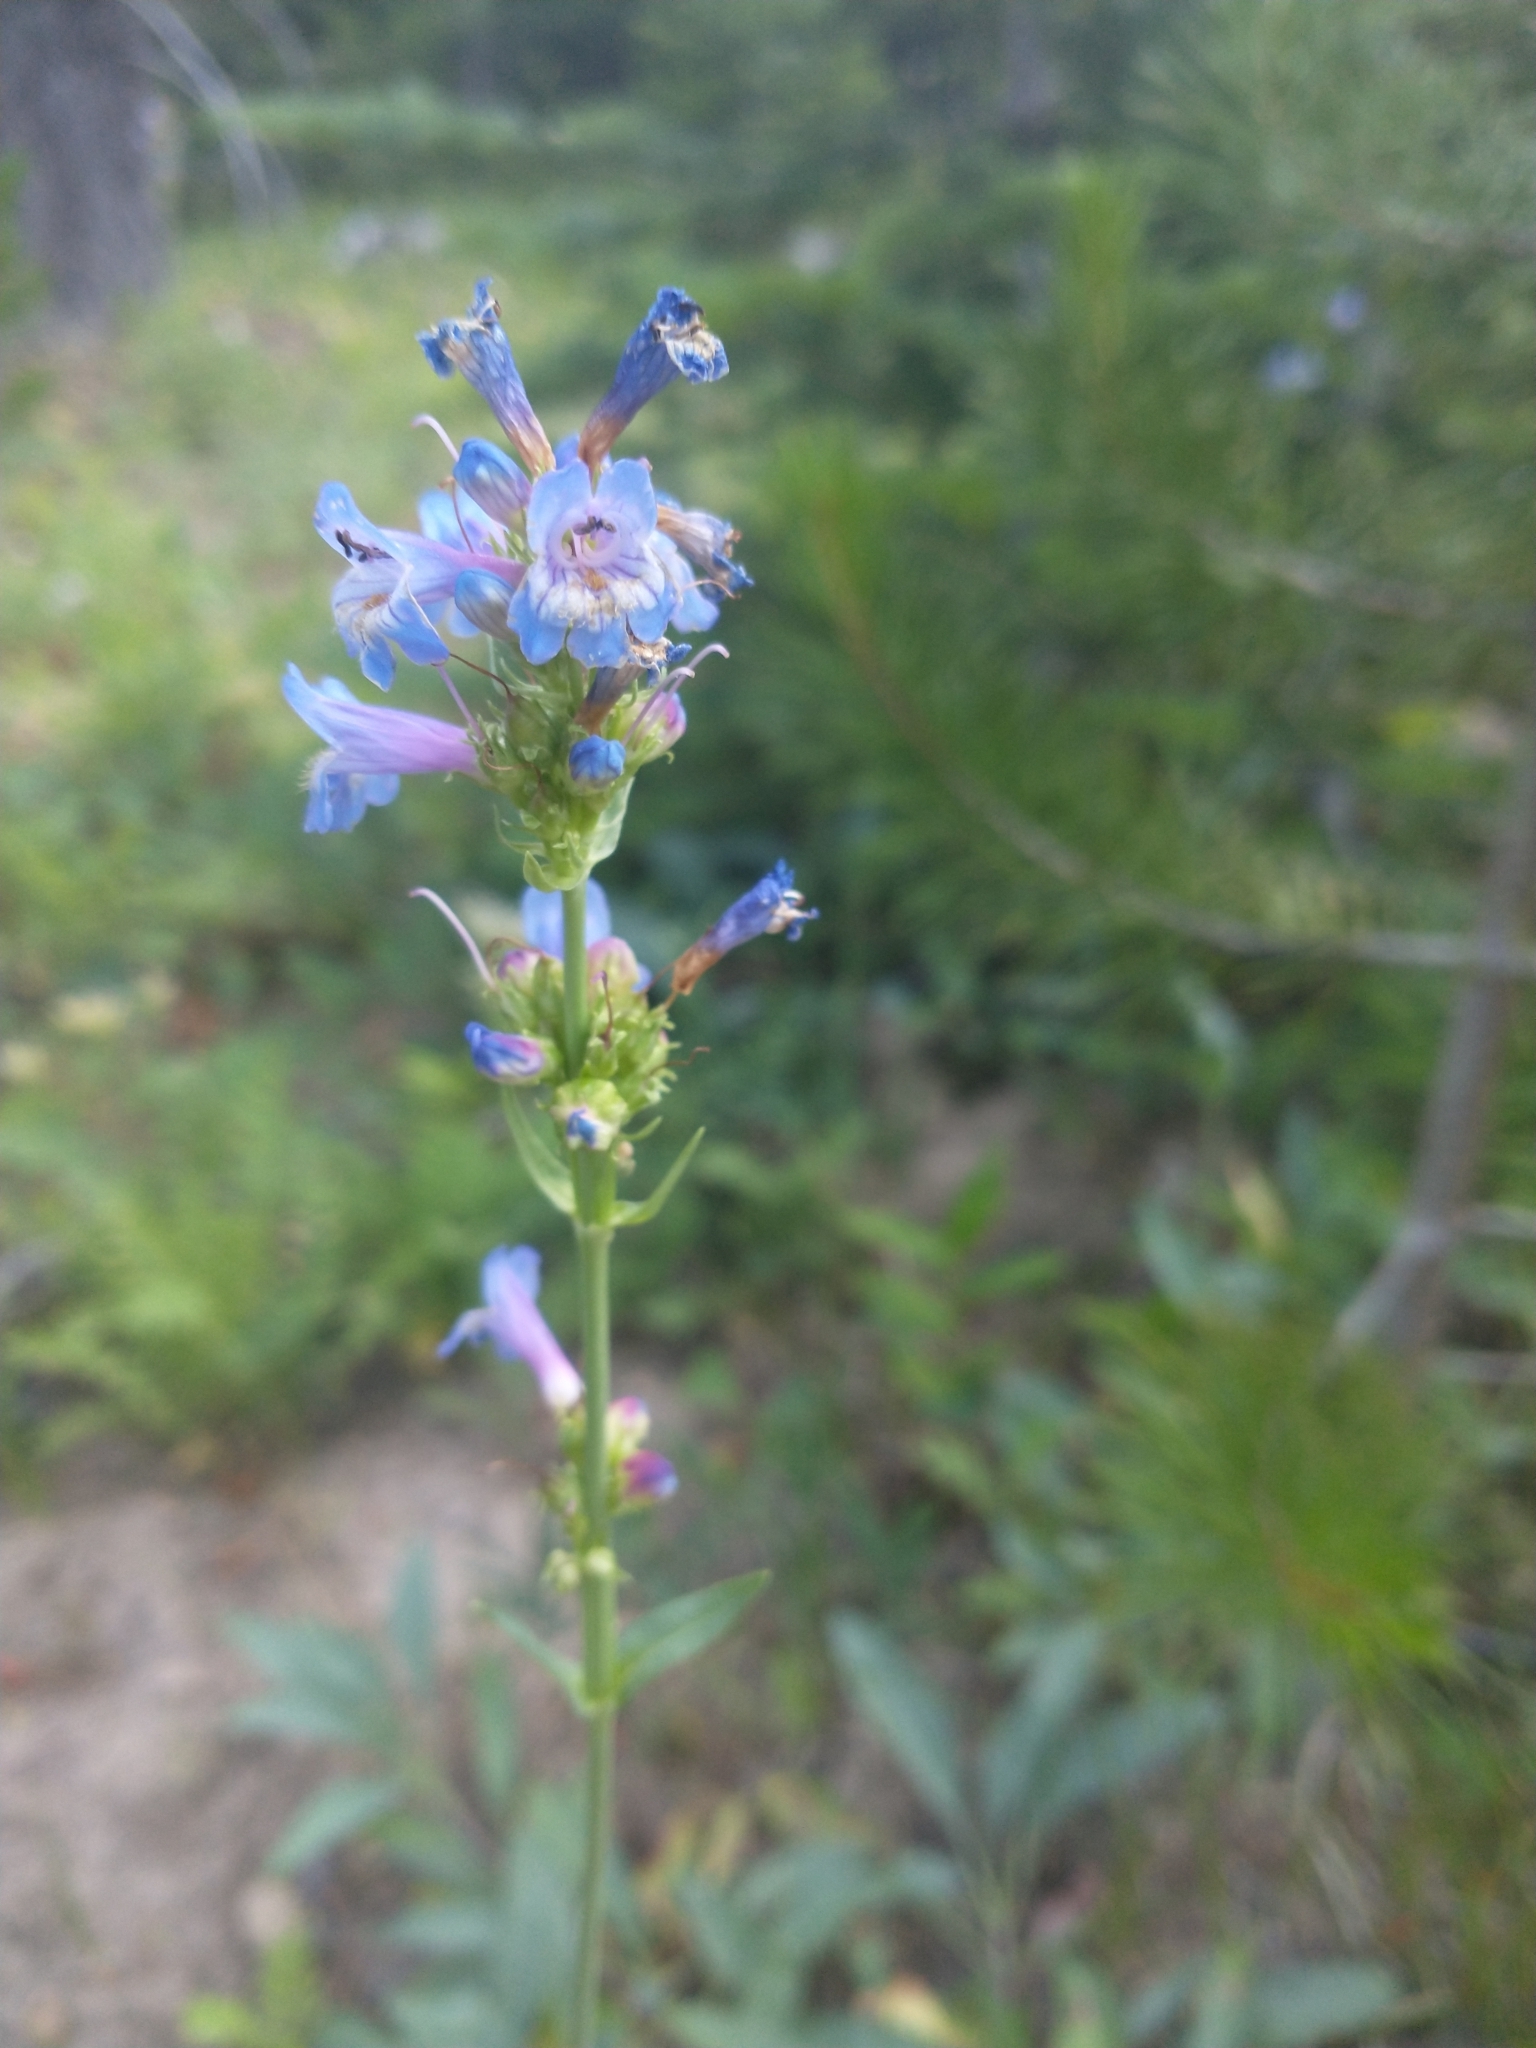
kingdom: Plantae
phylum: Tracheophyta
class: Magnoliopsida
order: Lamiales
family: Plantaginaceae
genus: Penstemon
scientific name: Penstemon euglaucus
